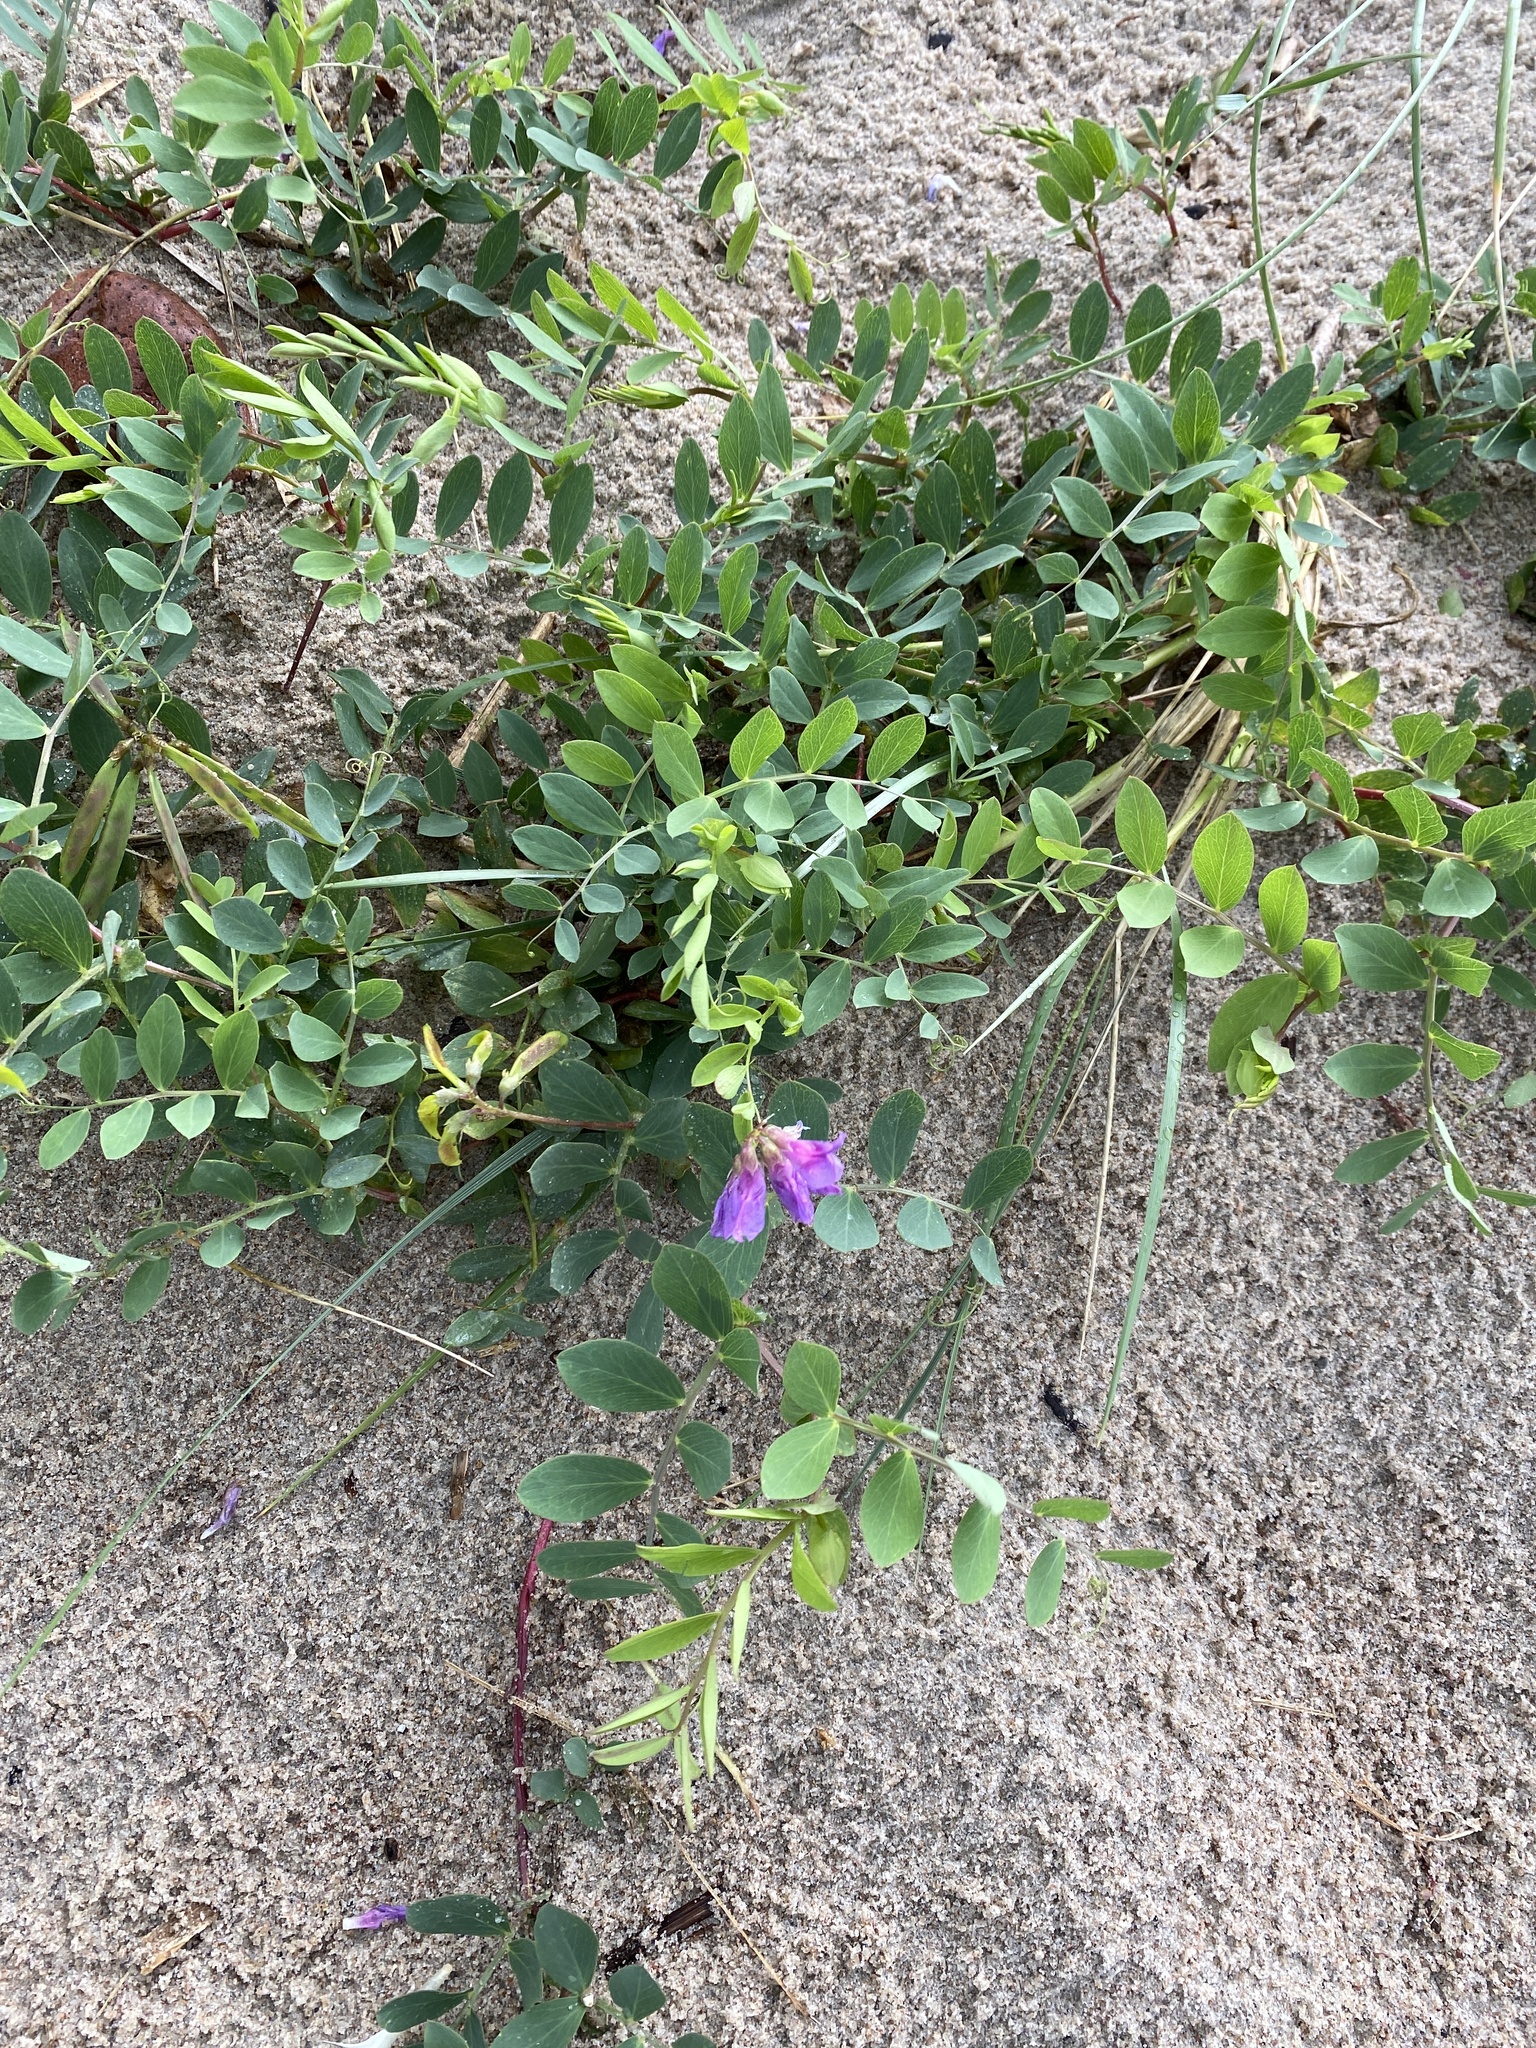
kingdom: Plantae
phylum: Tracheophyta
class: Magnoliopsida
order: Fabales
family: Fabaceae
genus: Lathyrus
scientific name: Lathyrus japonicus
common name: Sea pea
